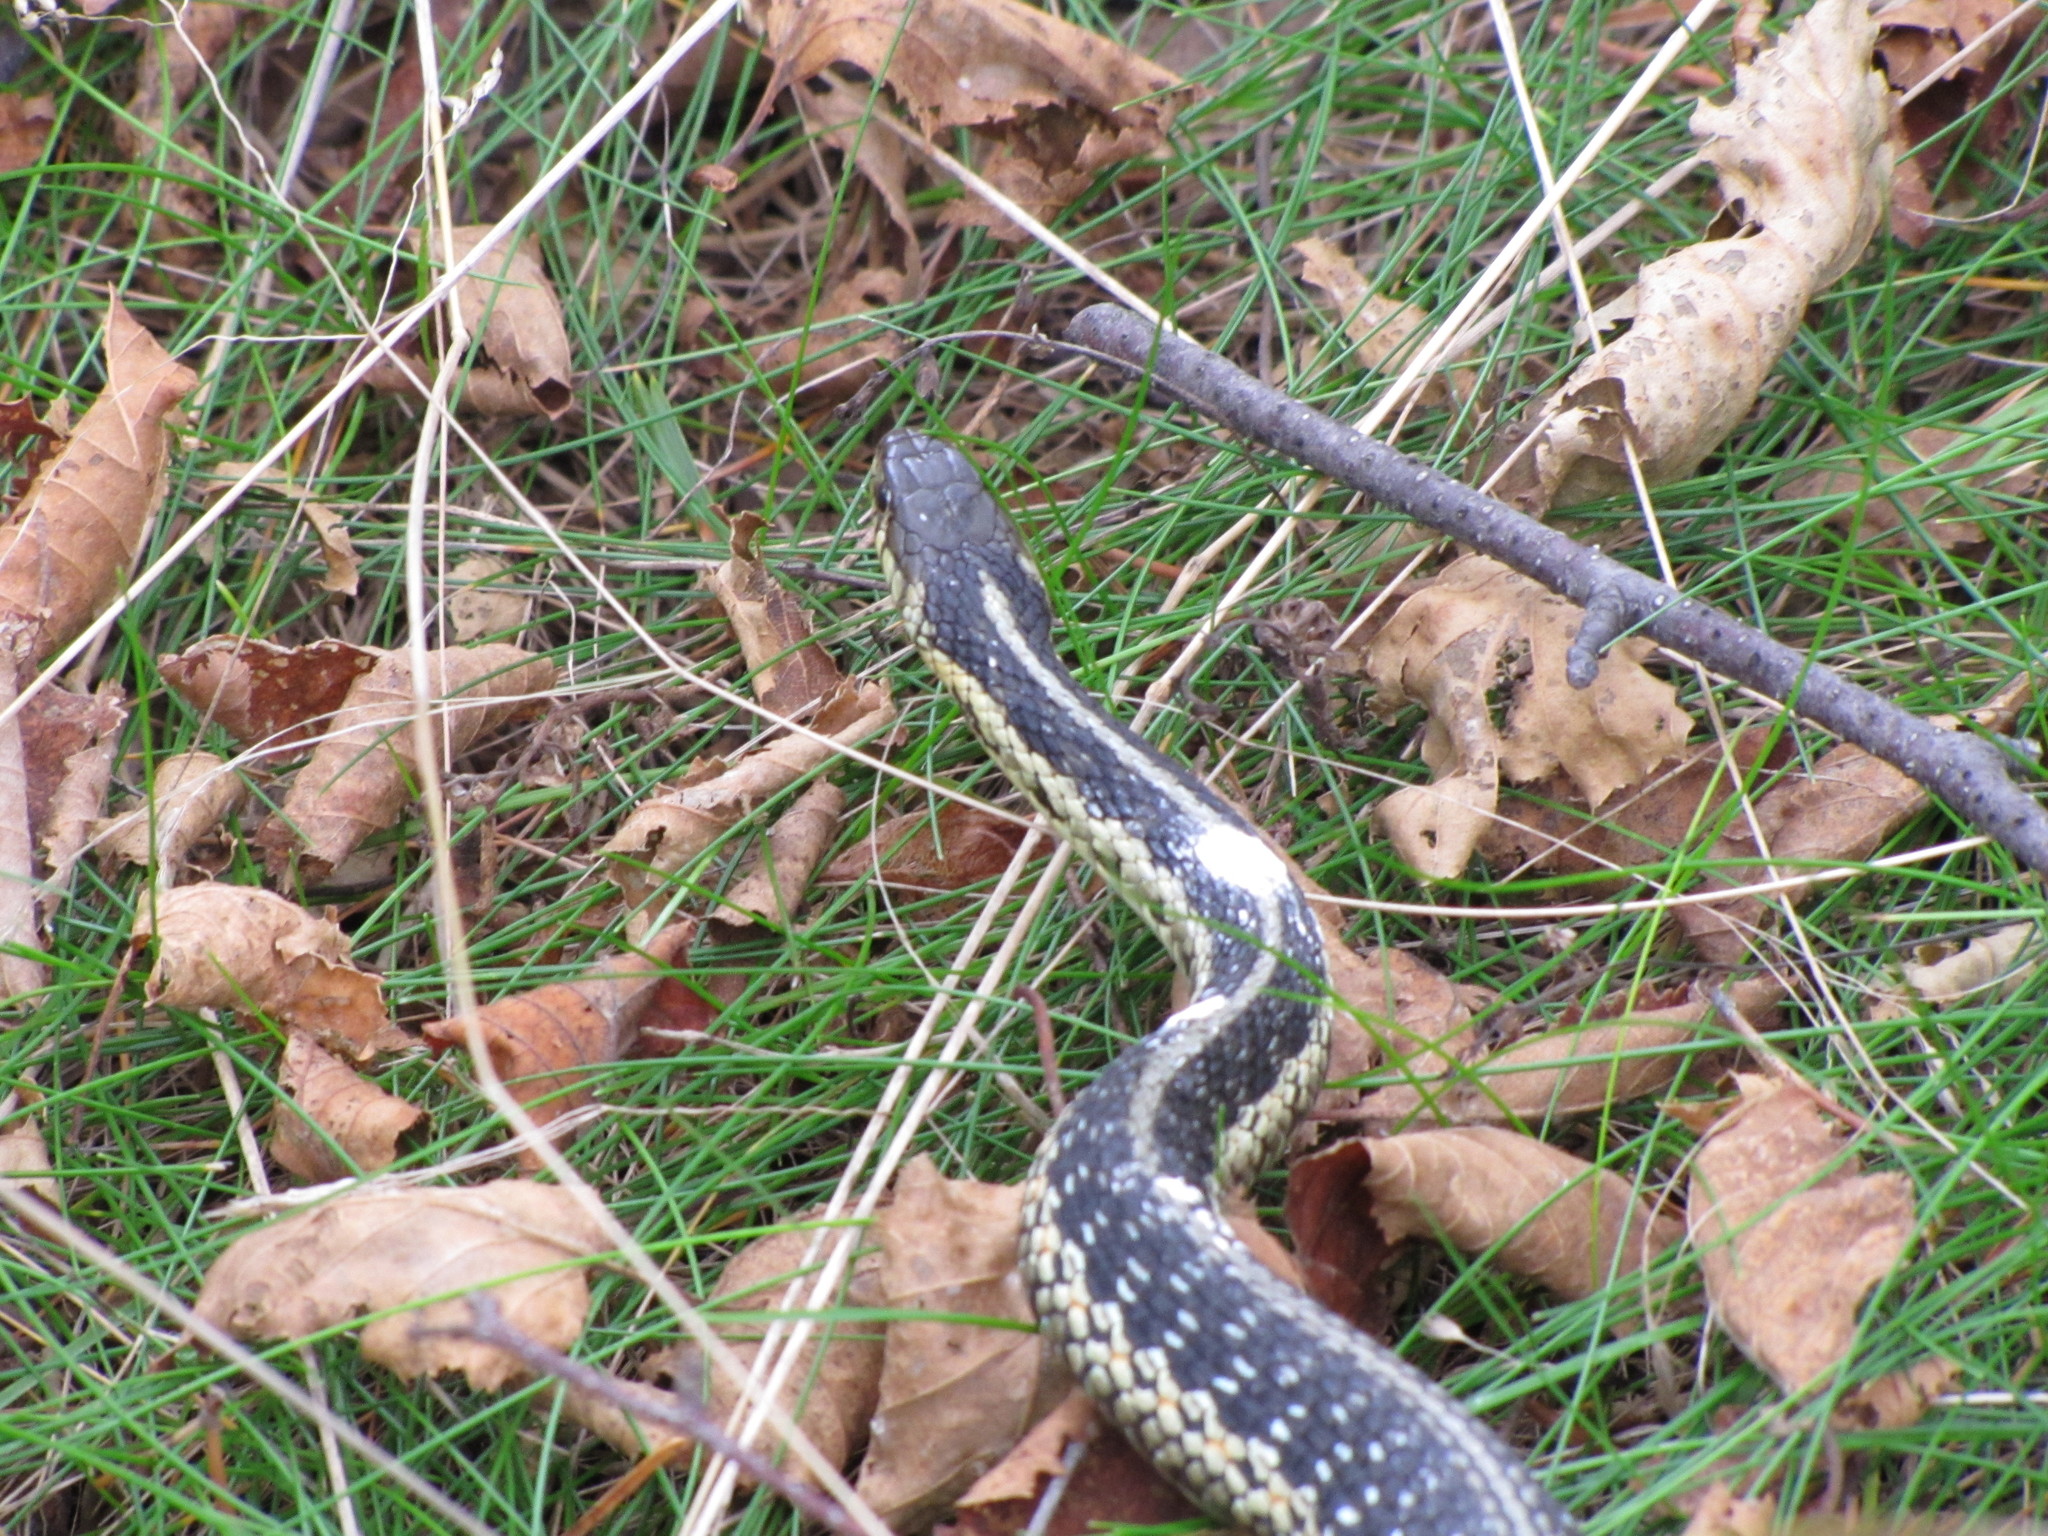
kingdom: Animalia
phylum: Chordata
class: Squamata
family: Colubridae
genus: Thamnophis
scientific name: Thamnophis sirtalis
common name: Common garter snake
